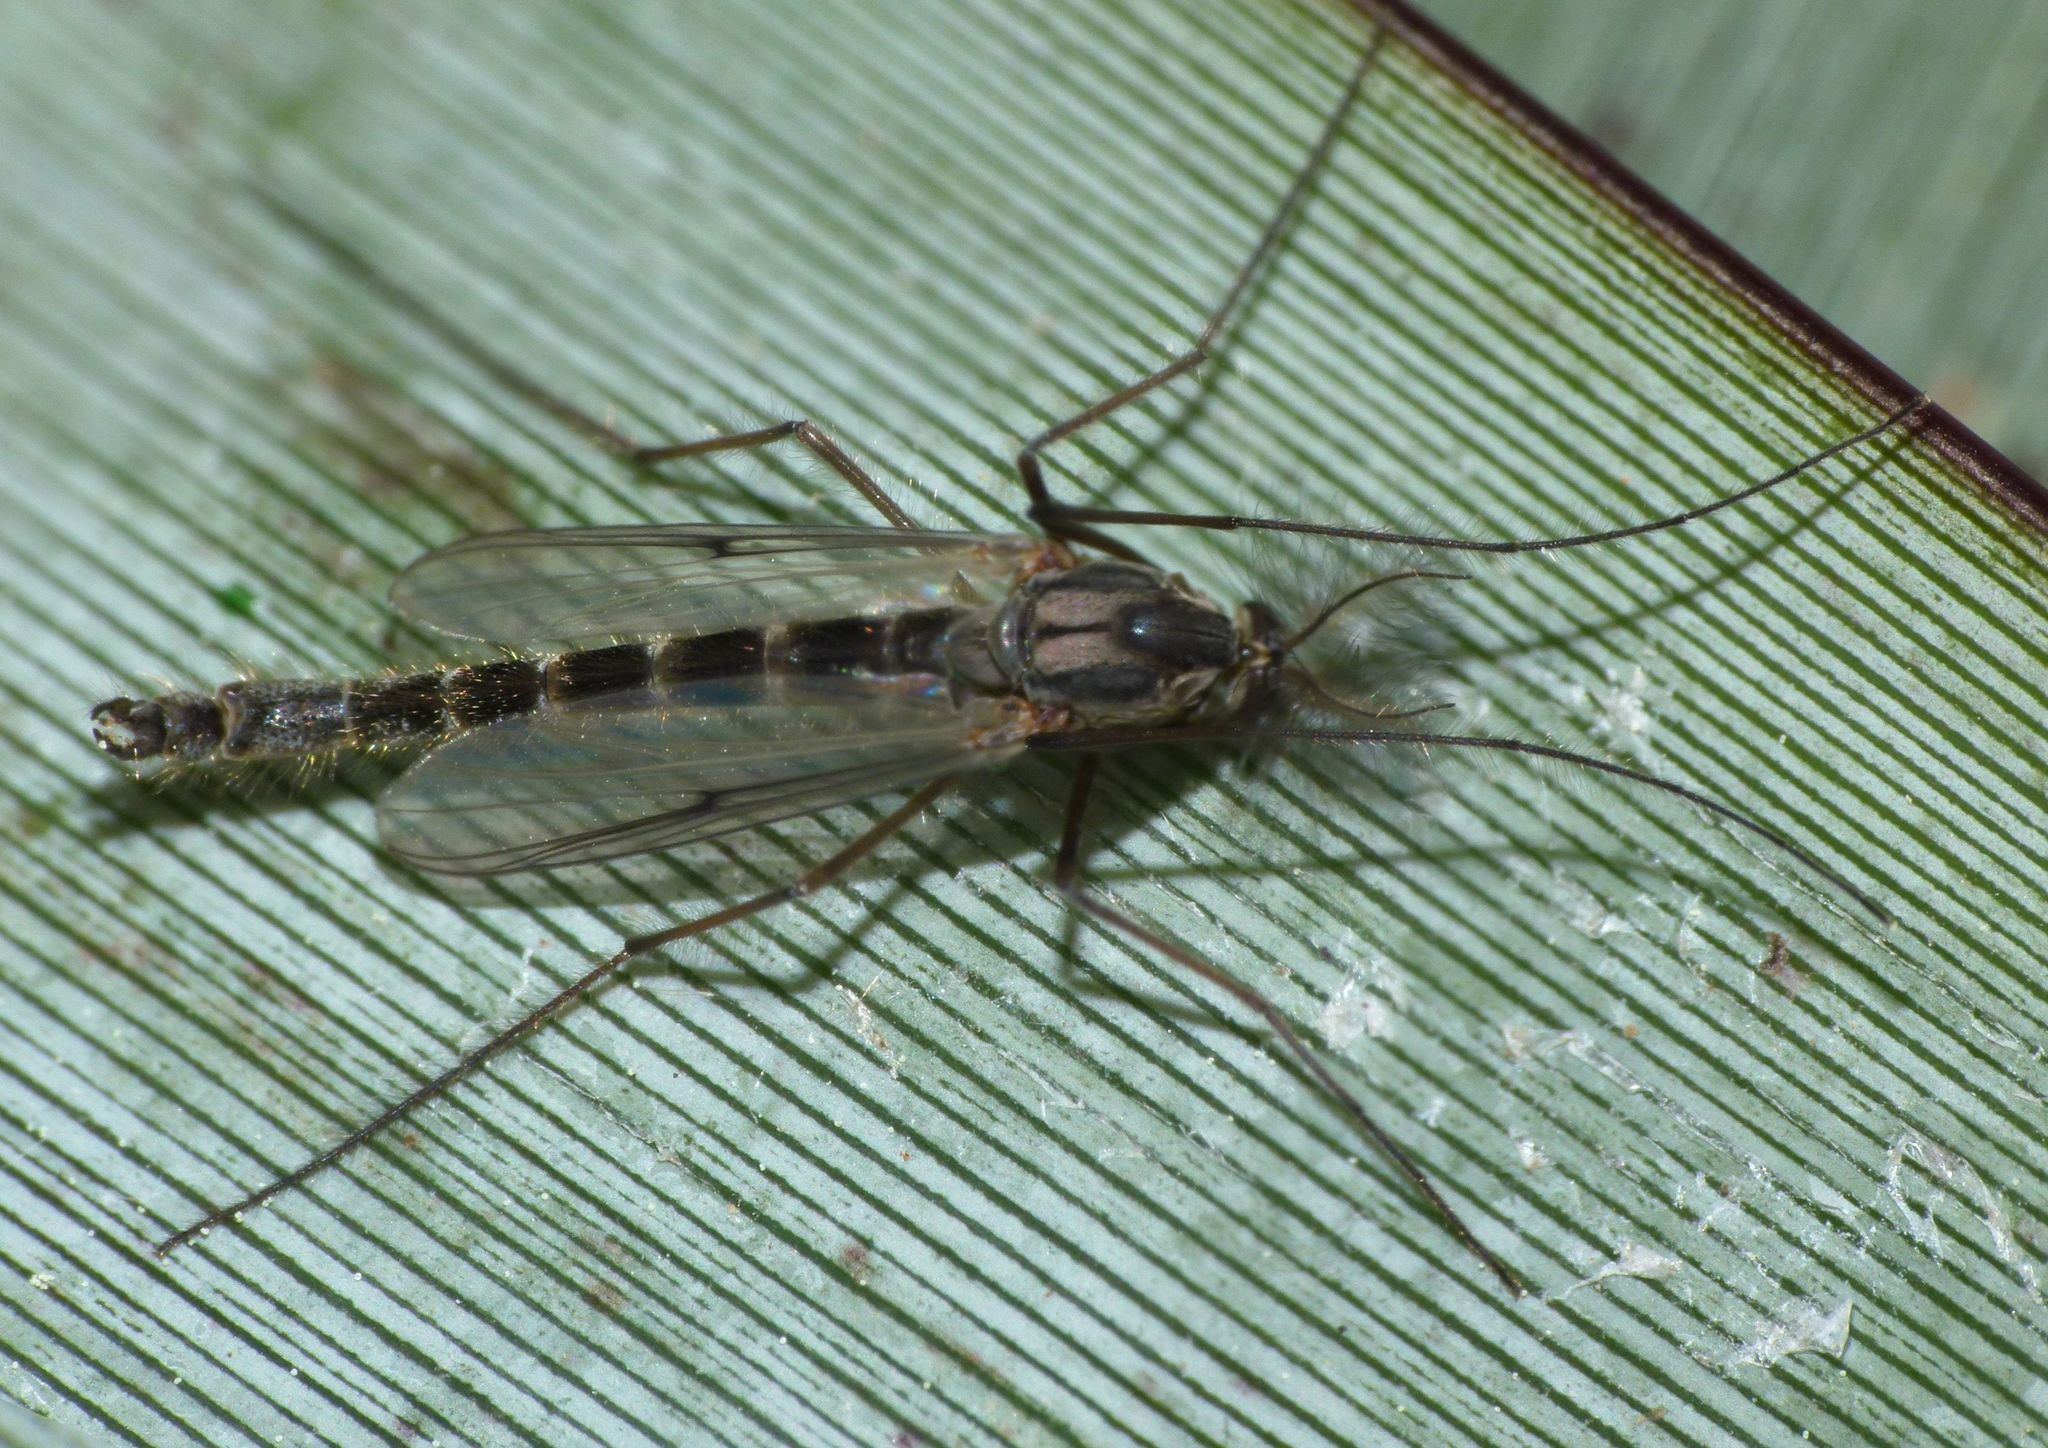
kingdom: Animalia
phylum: Arthropoda
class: Insecta
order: Diptera
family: Chironomidae
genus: Chironomus
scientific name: Chironomus zealandicus
